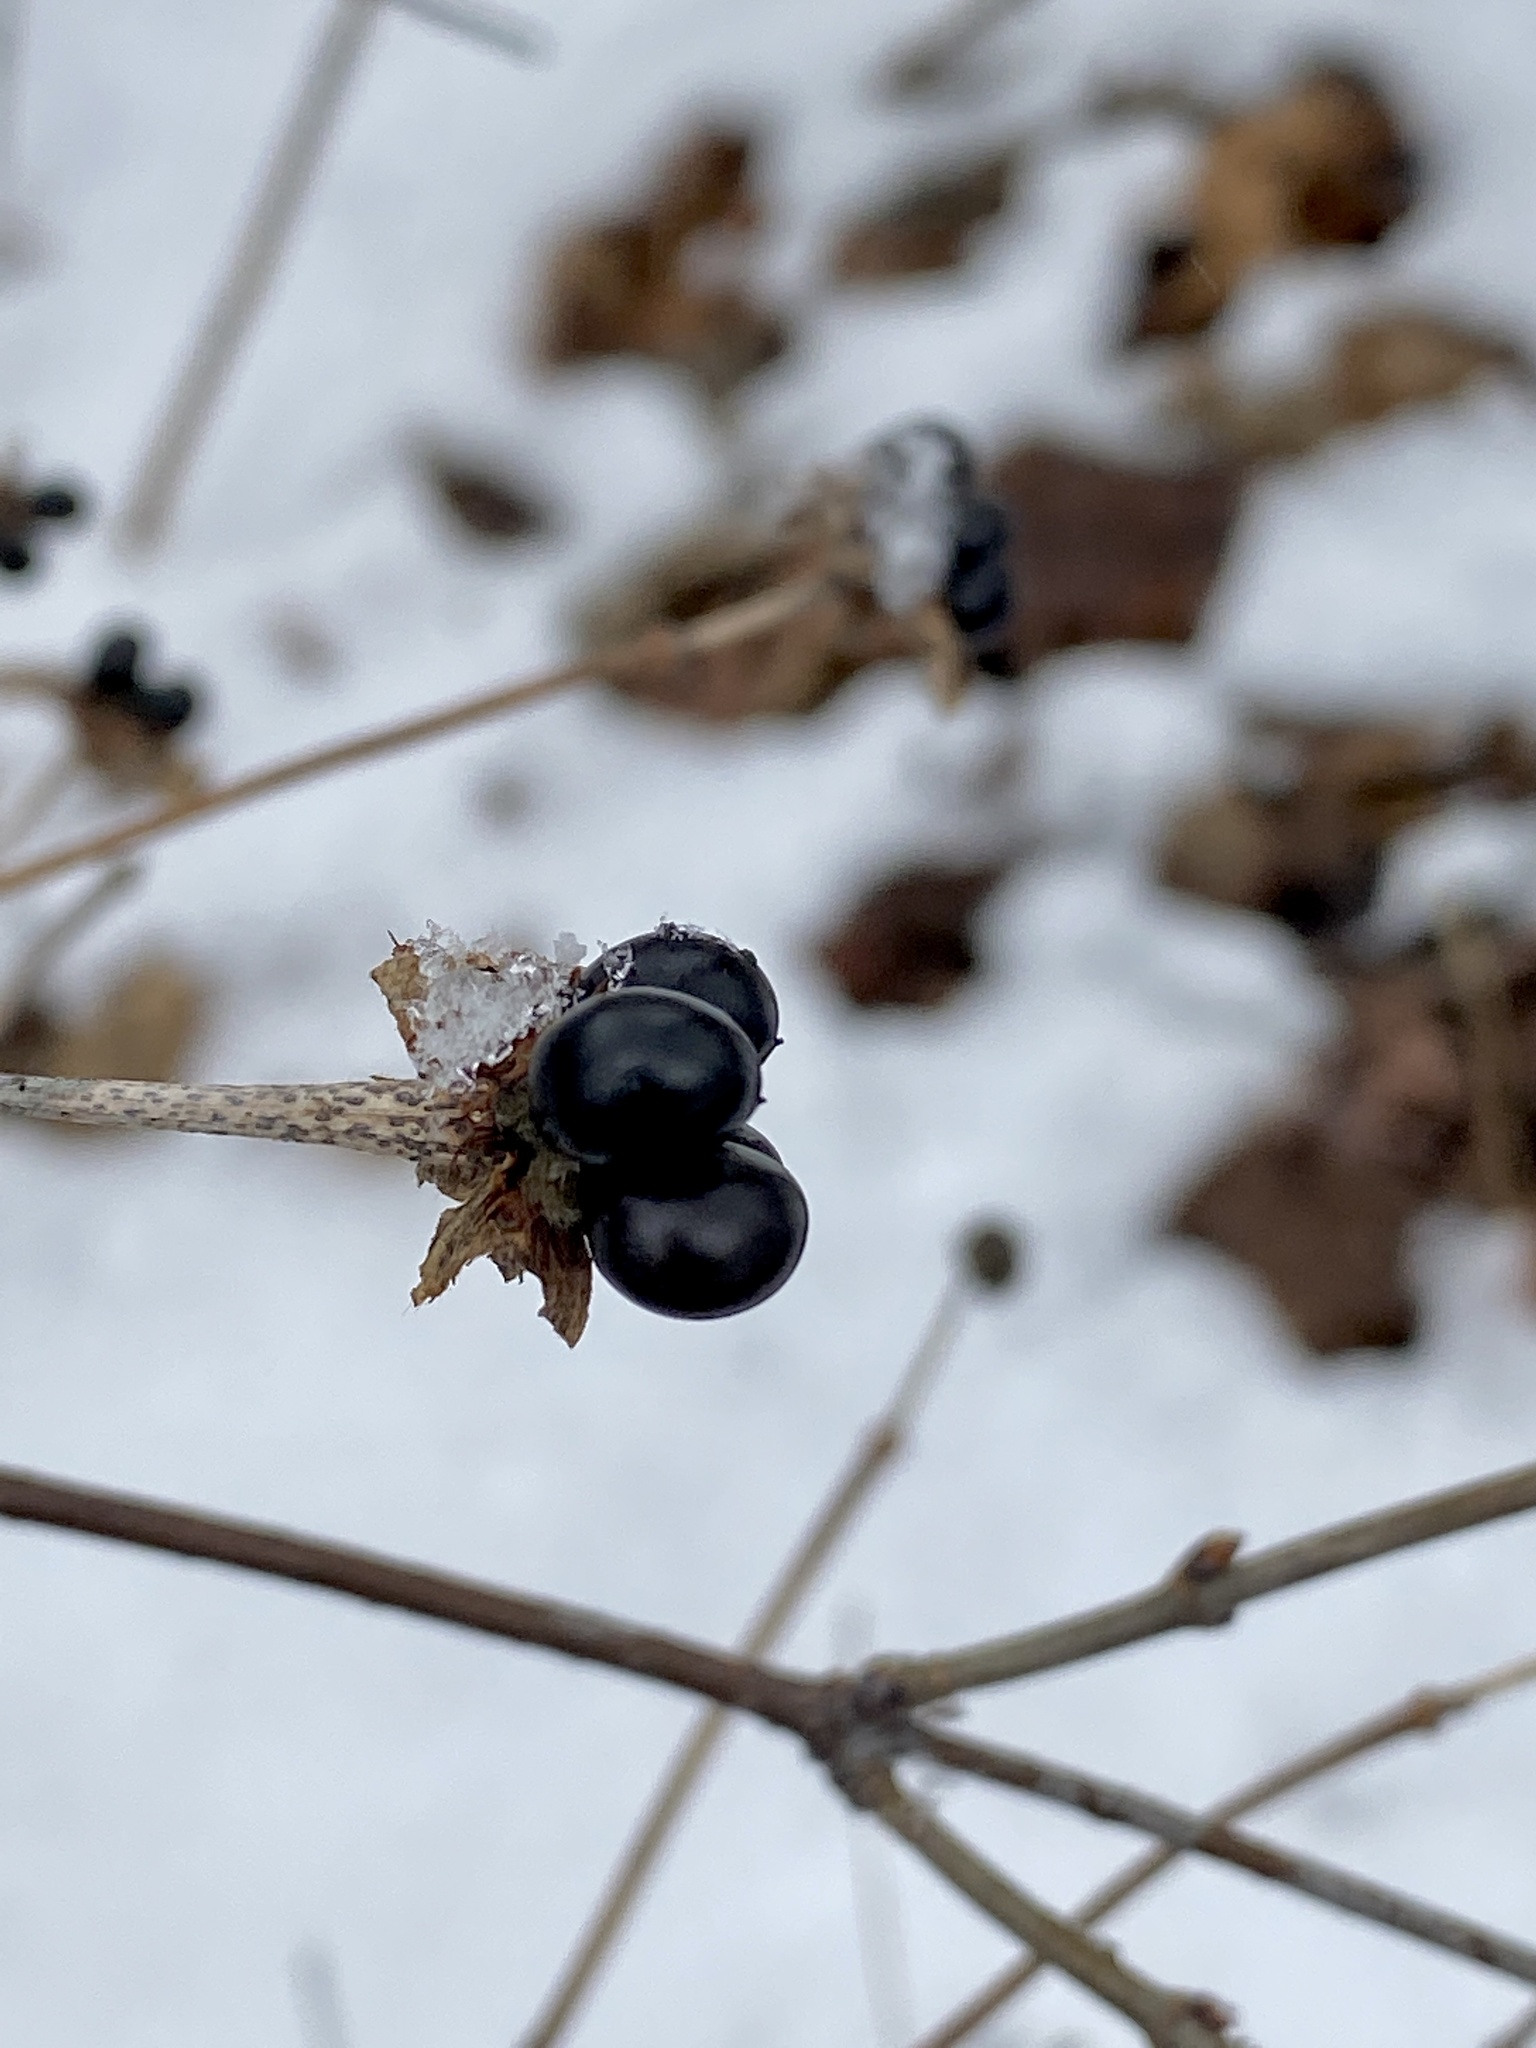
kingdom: Plantae
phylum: Tracheophyta
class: Magnoliopsida
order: Rosales
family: Rosaceae
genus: Rhodotypos
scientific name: Rhodotypos scandens
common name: Jetbead
